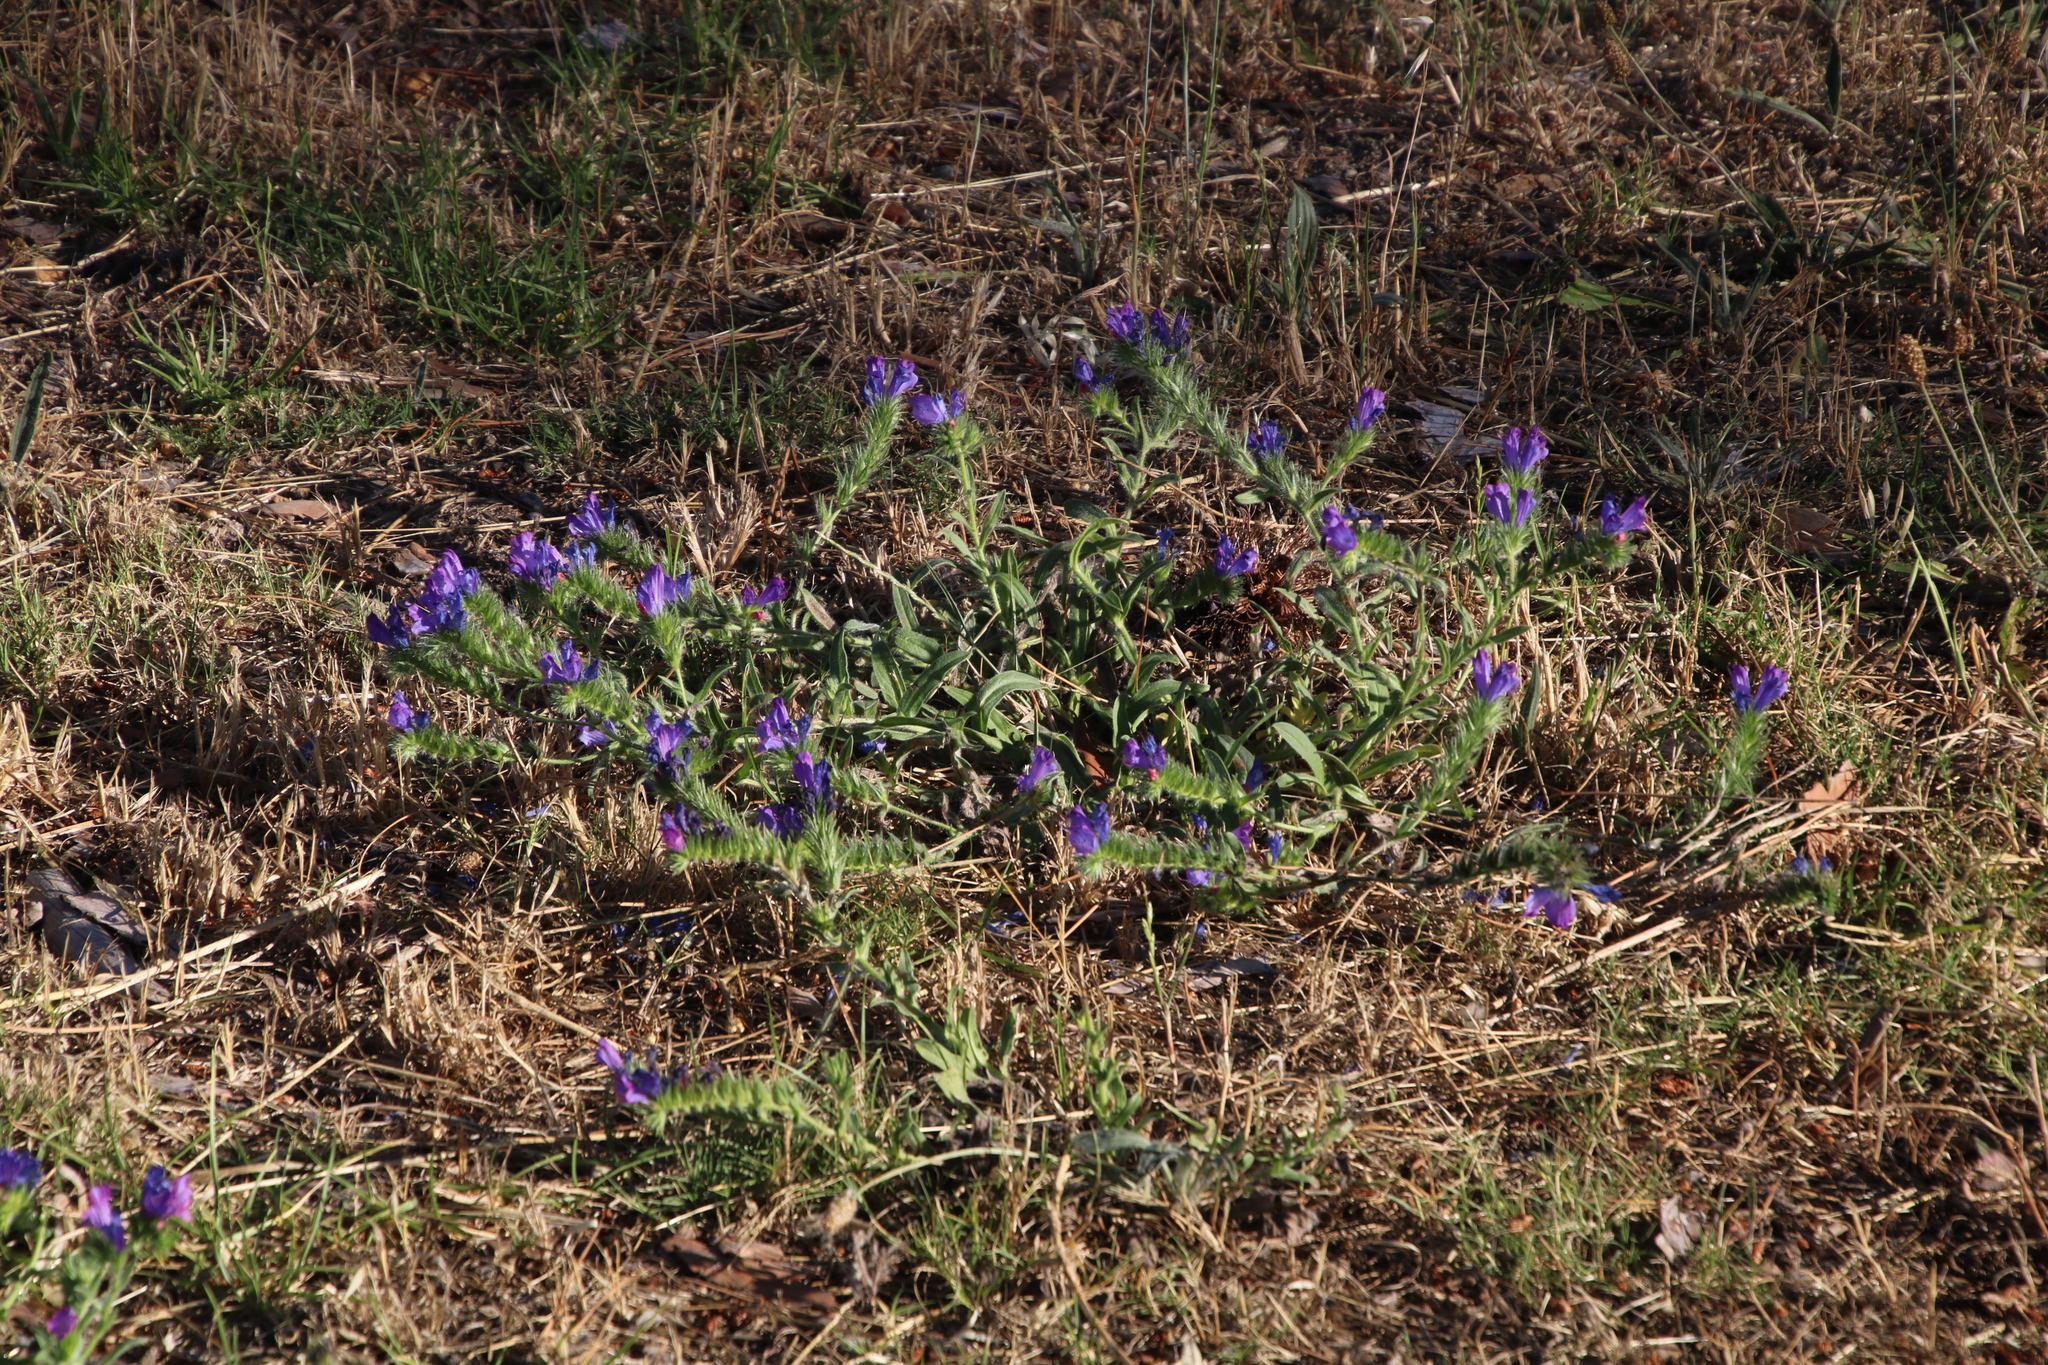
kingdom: Plantae
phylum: Tracheophyta
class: Magnoliopsida
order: Boraginales
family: Boraginaceae
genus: Echium
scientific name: Echium plantagineum
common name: Purple viper's-bugloss
